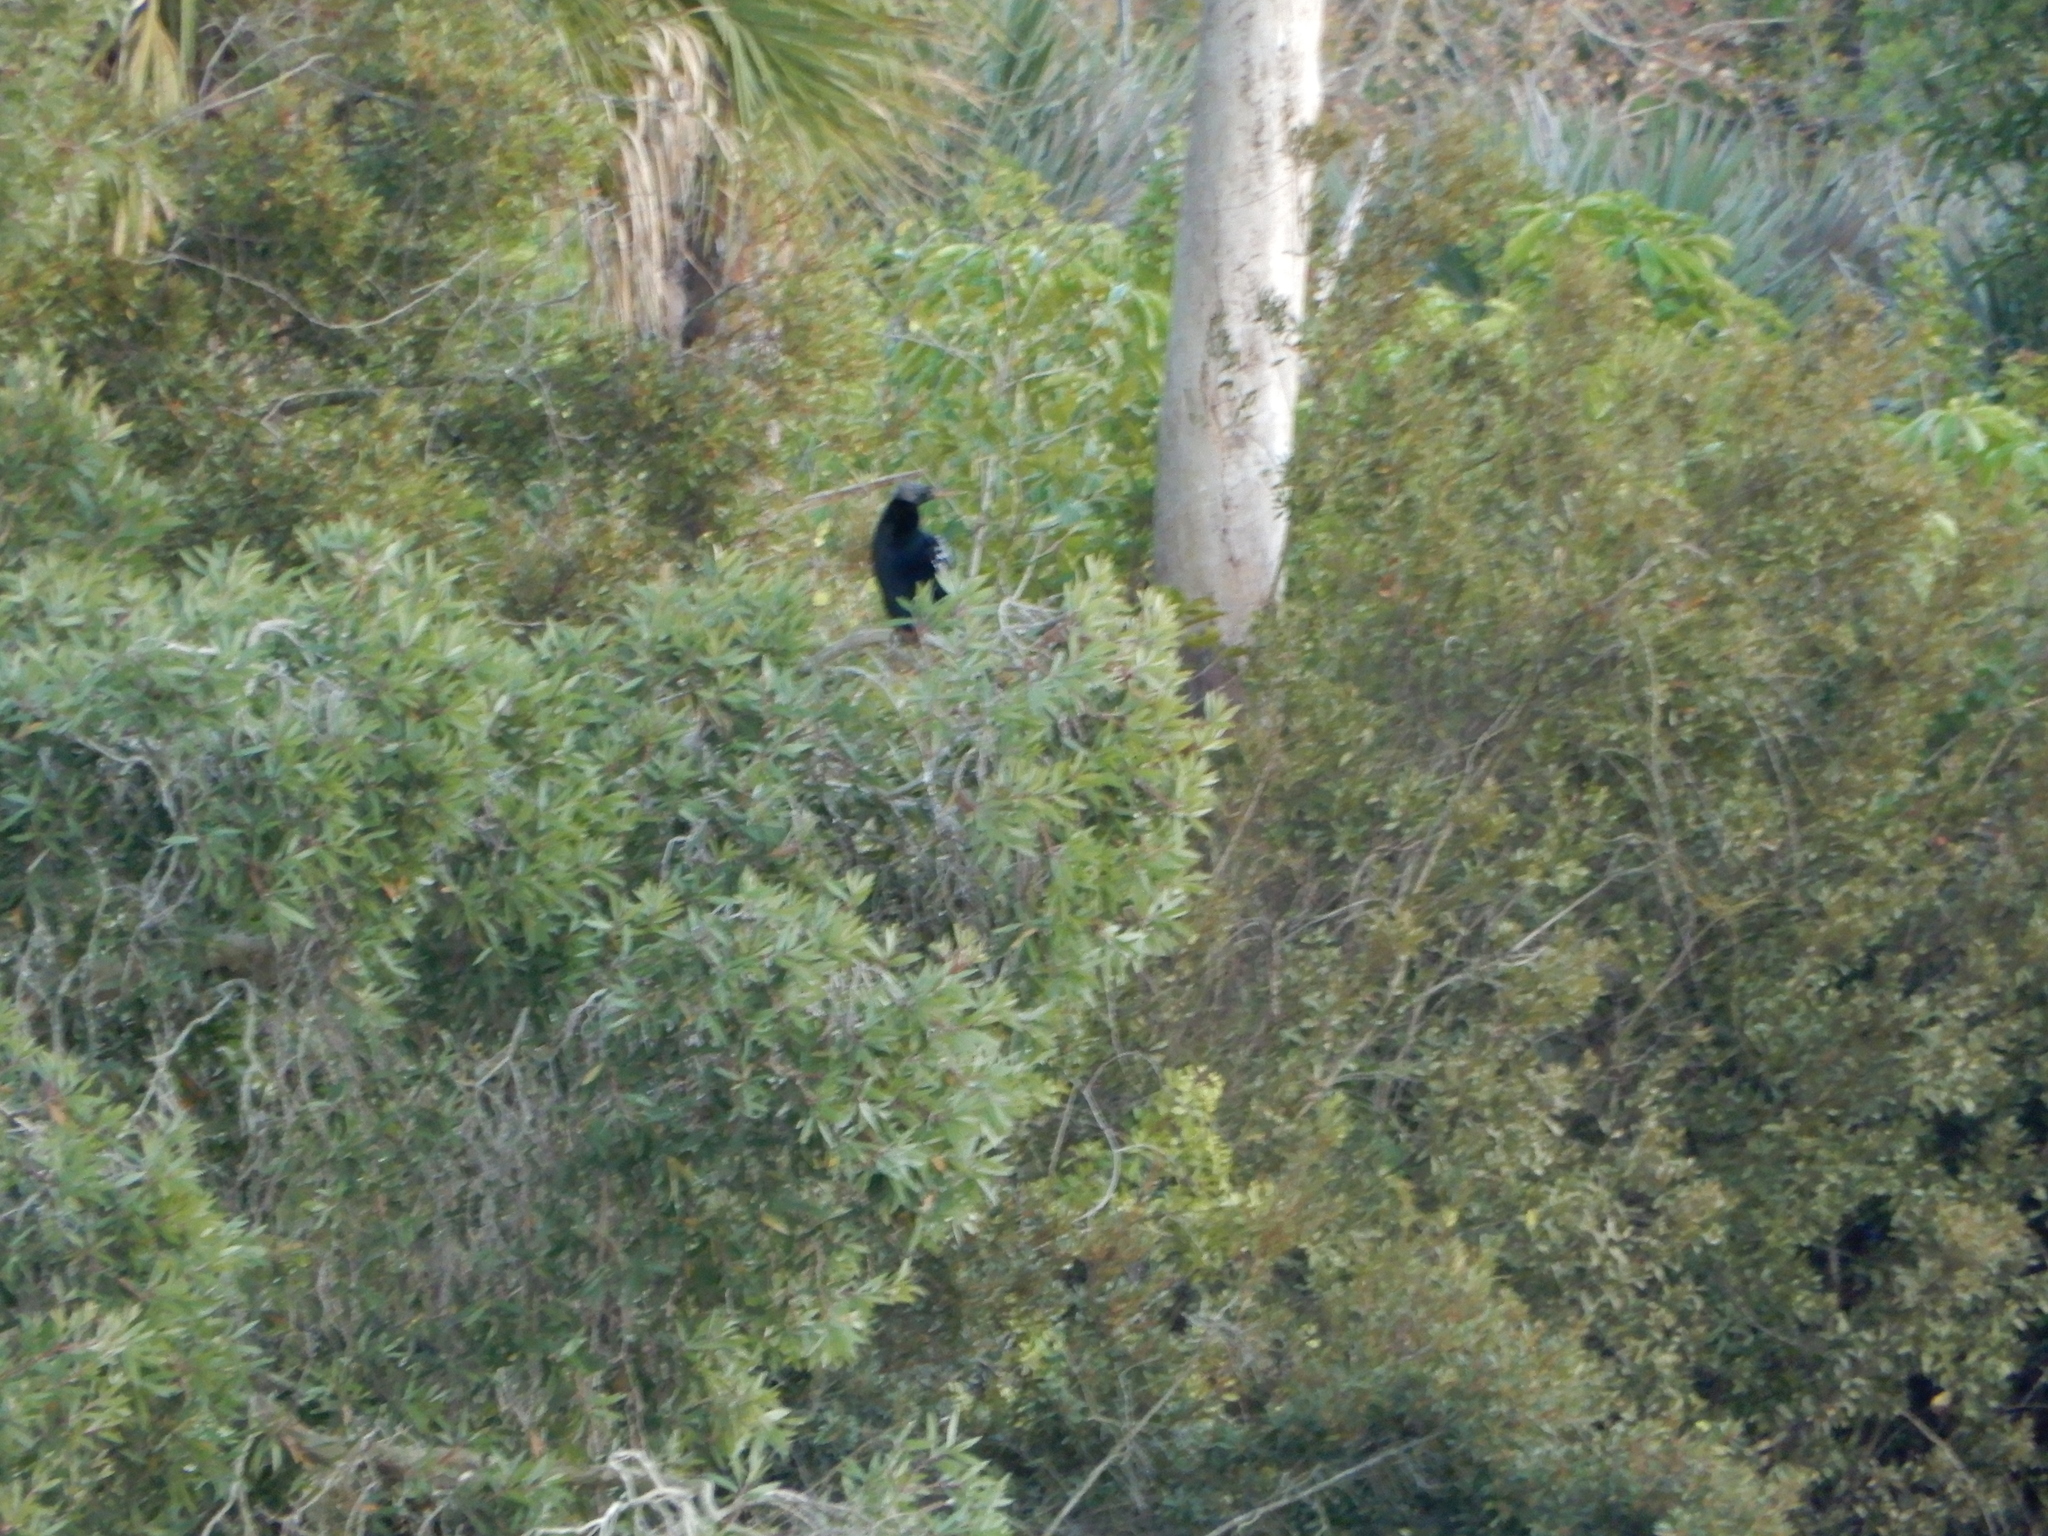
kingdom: Animalia
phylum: Chordata
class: Aves
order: Suliformes
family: Anhingidae
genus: Anhinga
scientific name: Anhinga anhinga
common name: Anhinga
